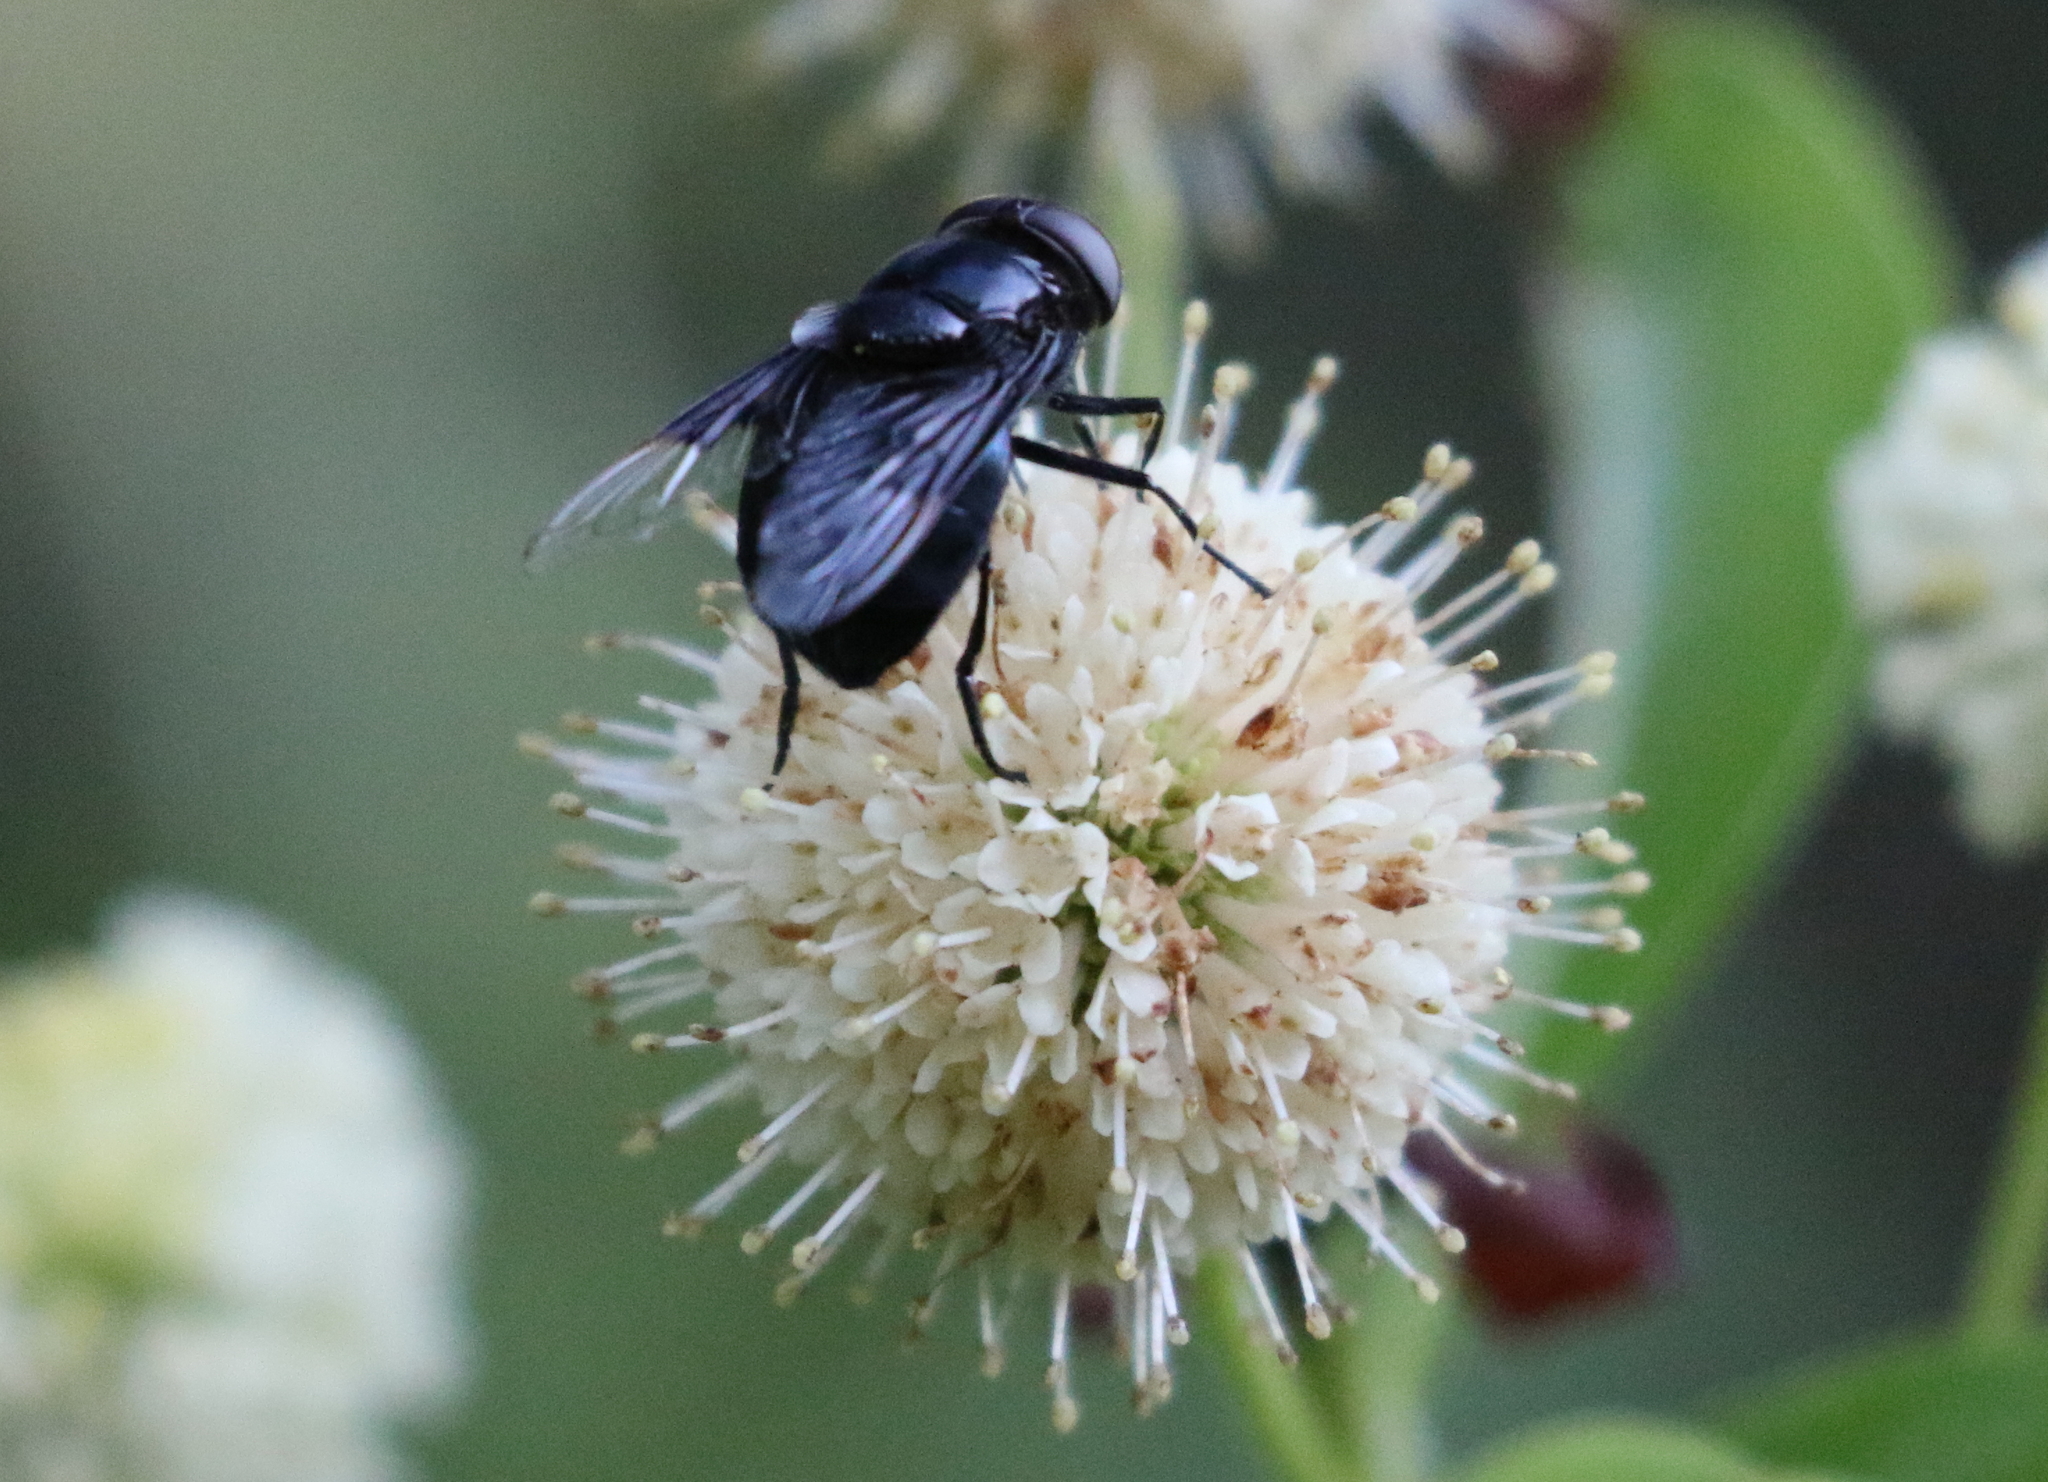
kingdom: Animalia
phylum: Arthropoda
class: Insecta
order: Diptera
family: Syrphidae
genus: Copestylum
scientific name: Copestylum mexicanum
